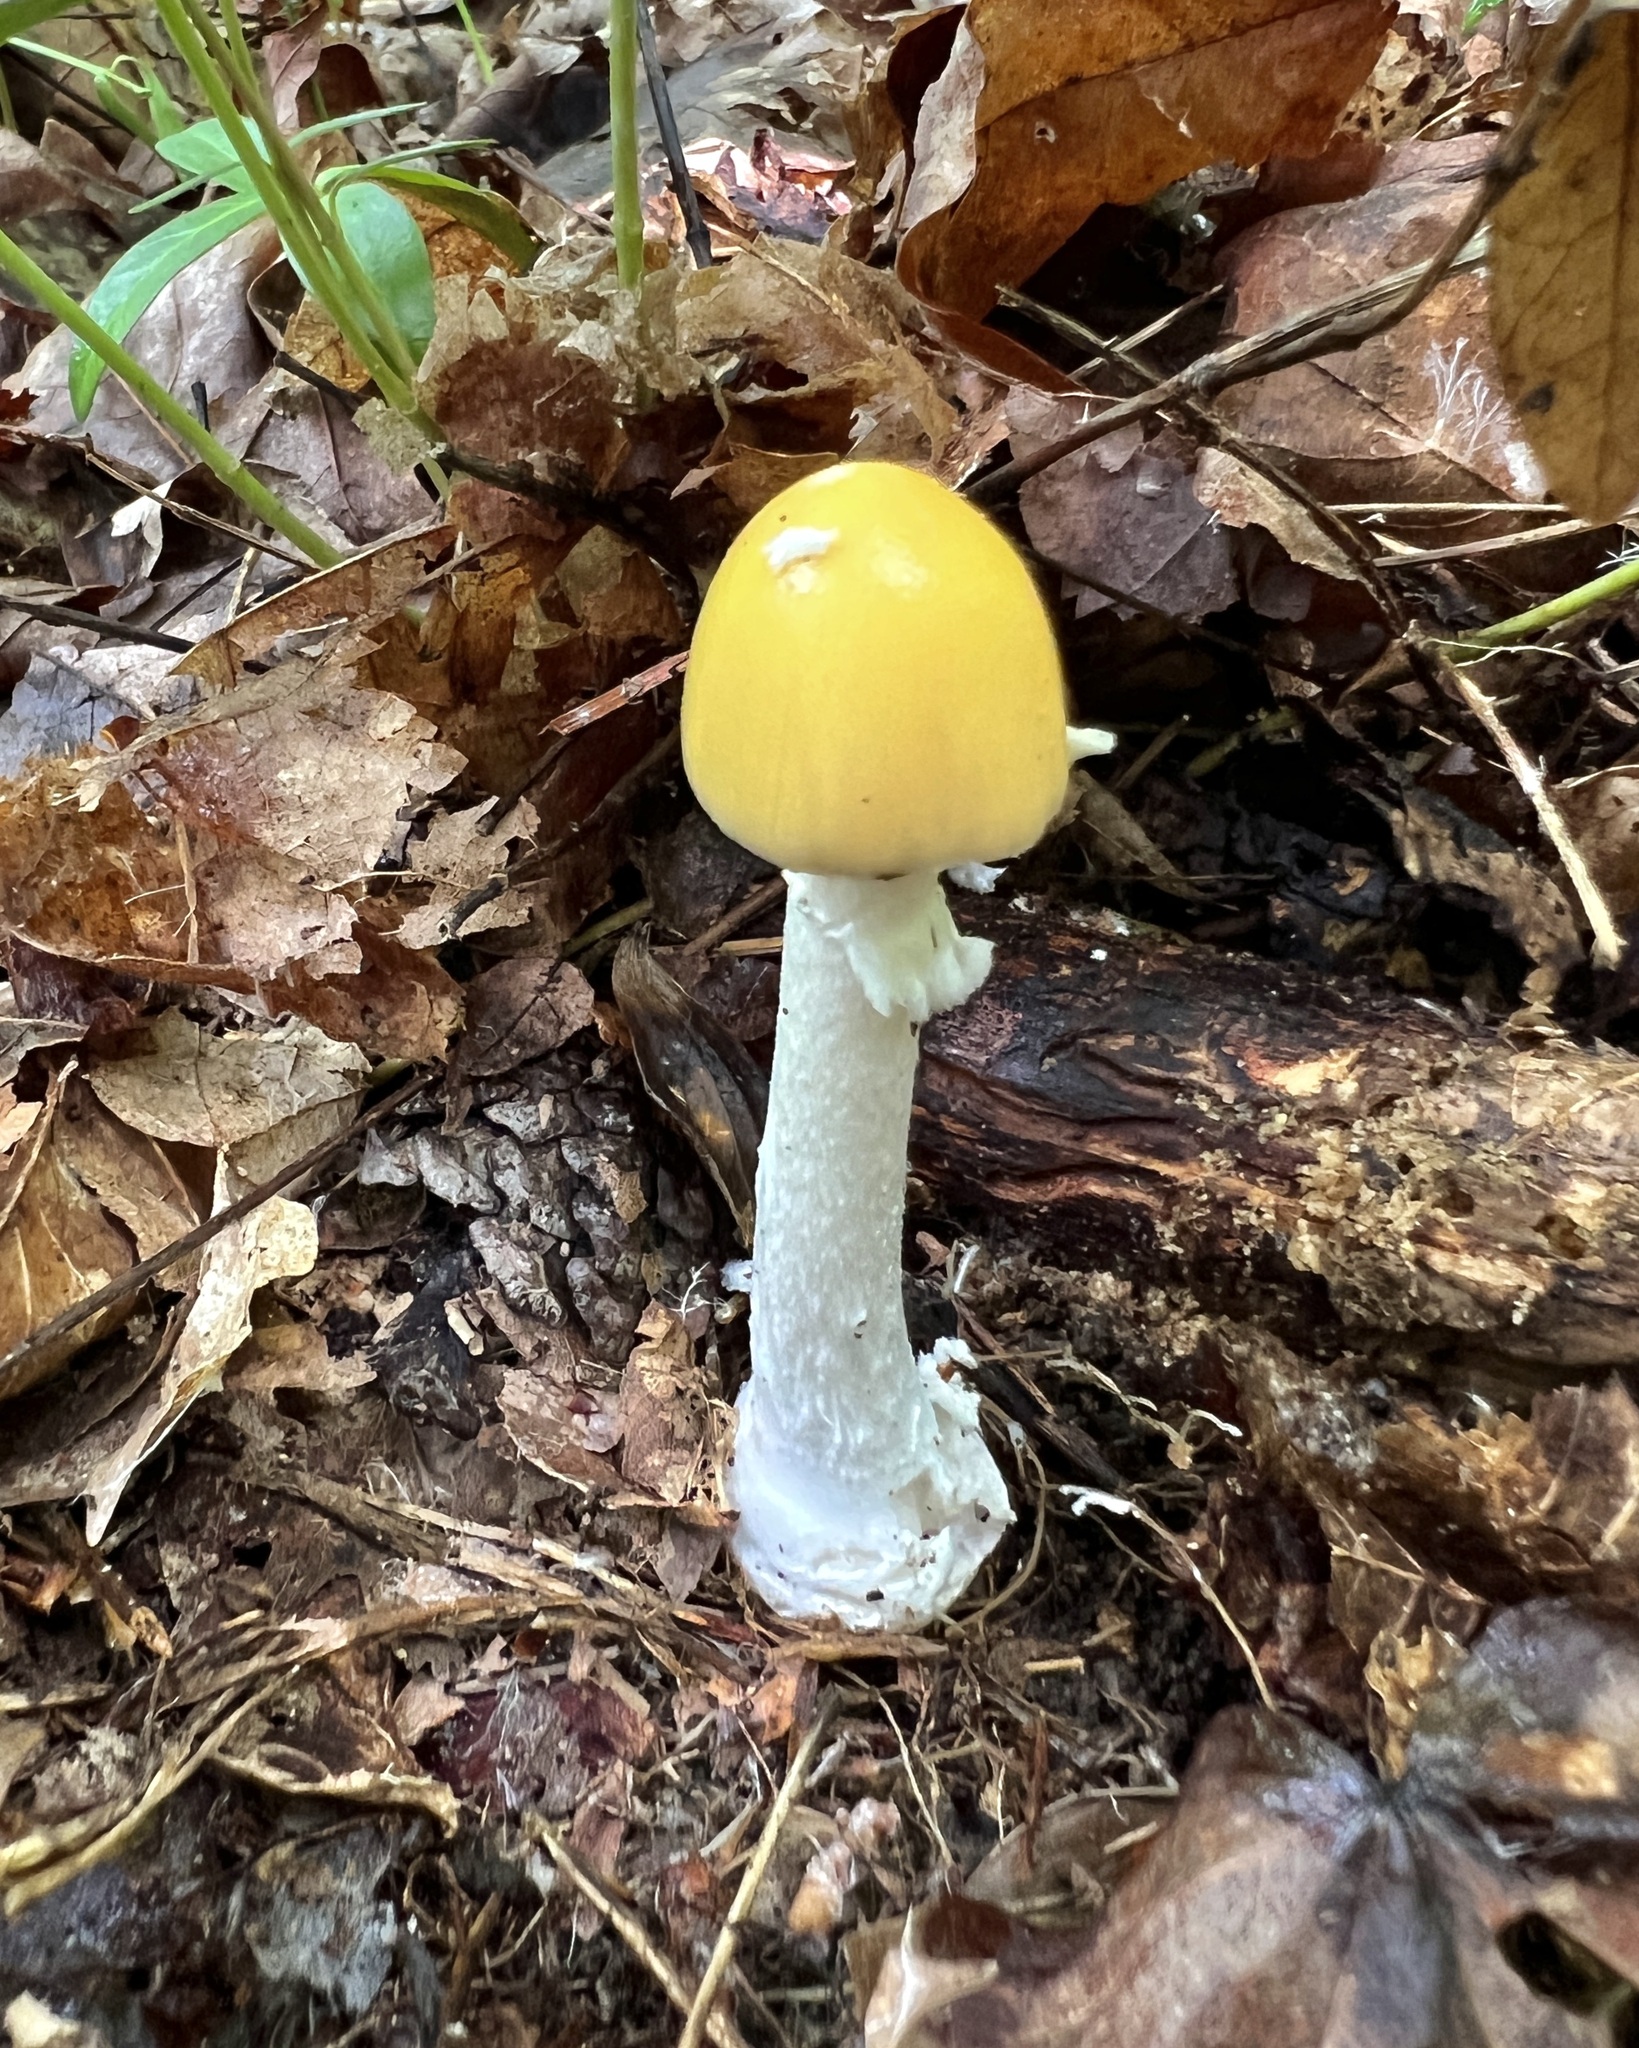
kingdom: Fungi
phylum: Basidiomycota
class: Agaricomycetes
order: Agaricales
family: Amanitaceae
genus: Amanita
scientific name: Amanita russuloides
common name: Russula-like amanita
